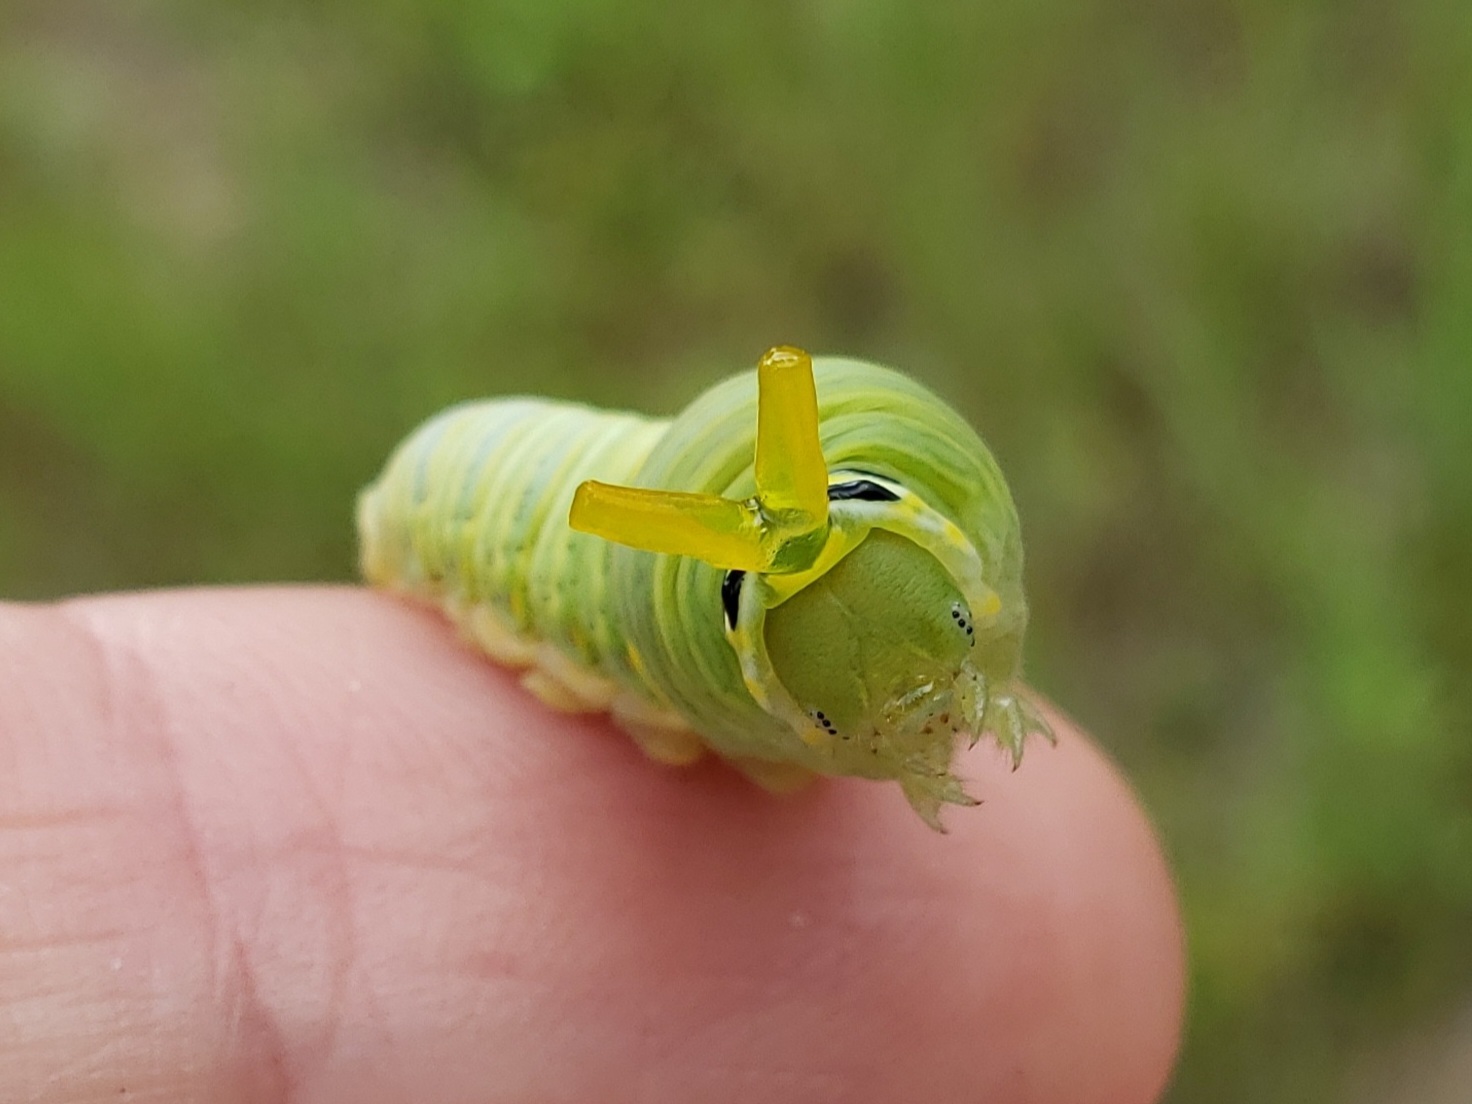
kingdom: Animalia
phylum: Arthropoda
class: Insecta
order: Lepidoptera
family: Papilionidae
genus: Protographium
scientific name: Protographium marcellus
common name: Zebra swallowtail
